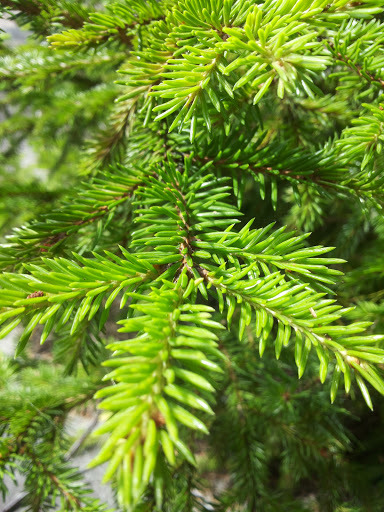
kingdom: Plantae
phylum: Tracheophyta
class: Pinopsida
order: Pinales
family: Pinaceae
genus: Picea
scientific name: Picea abies
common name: Norway spruce
